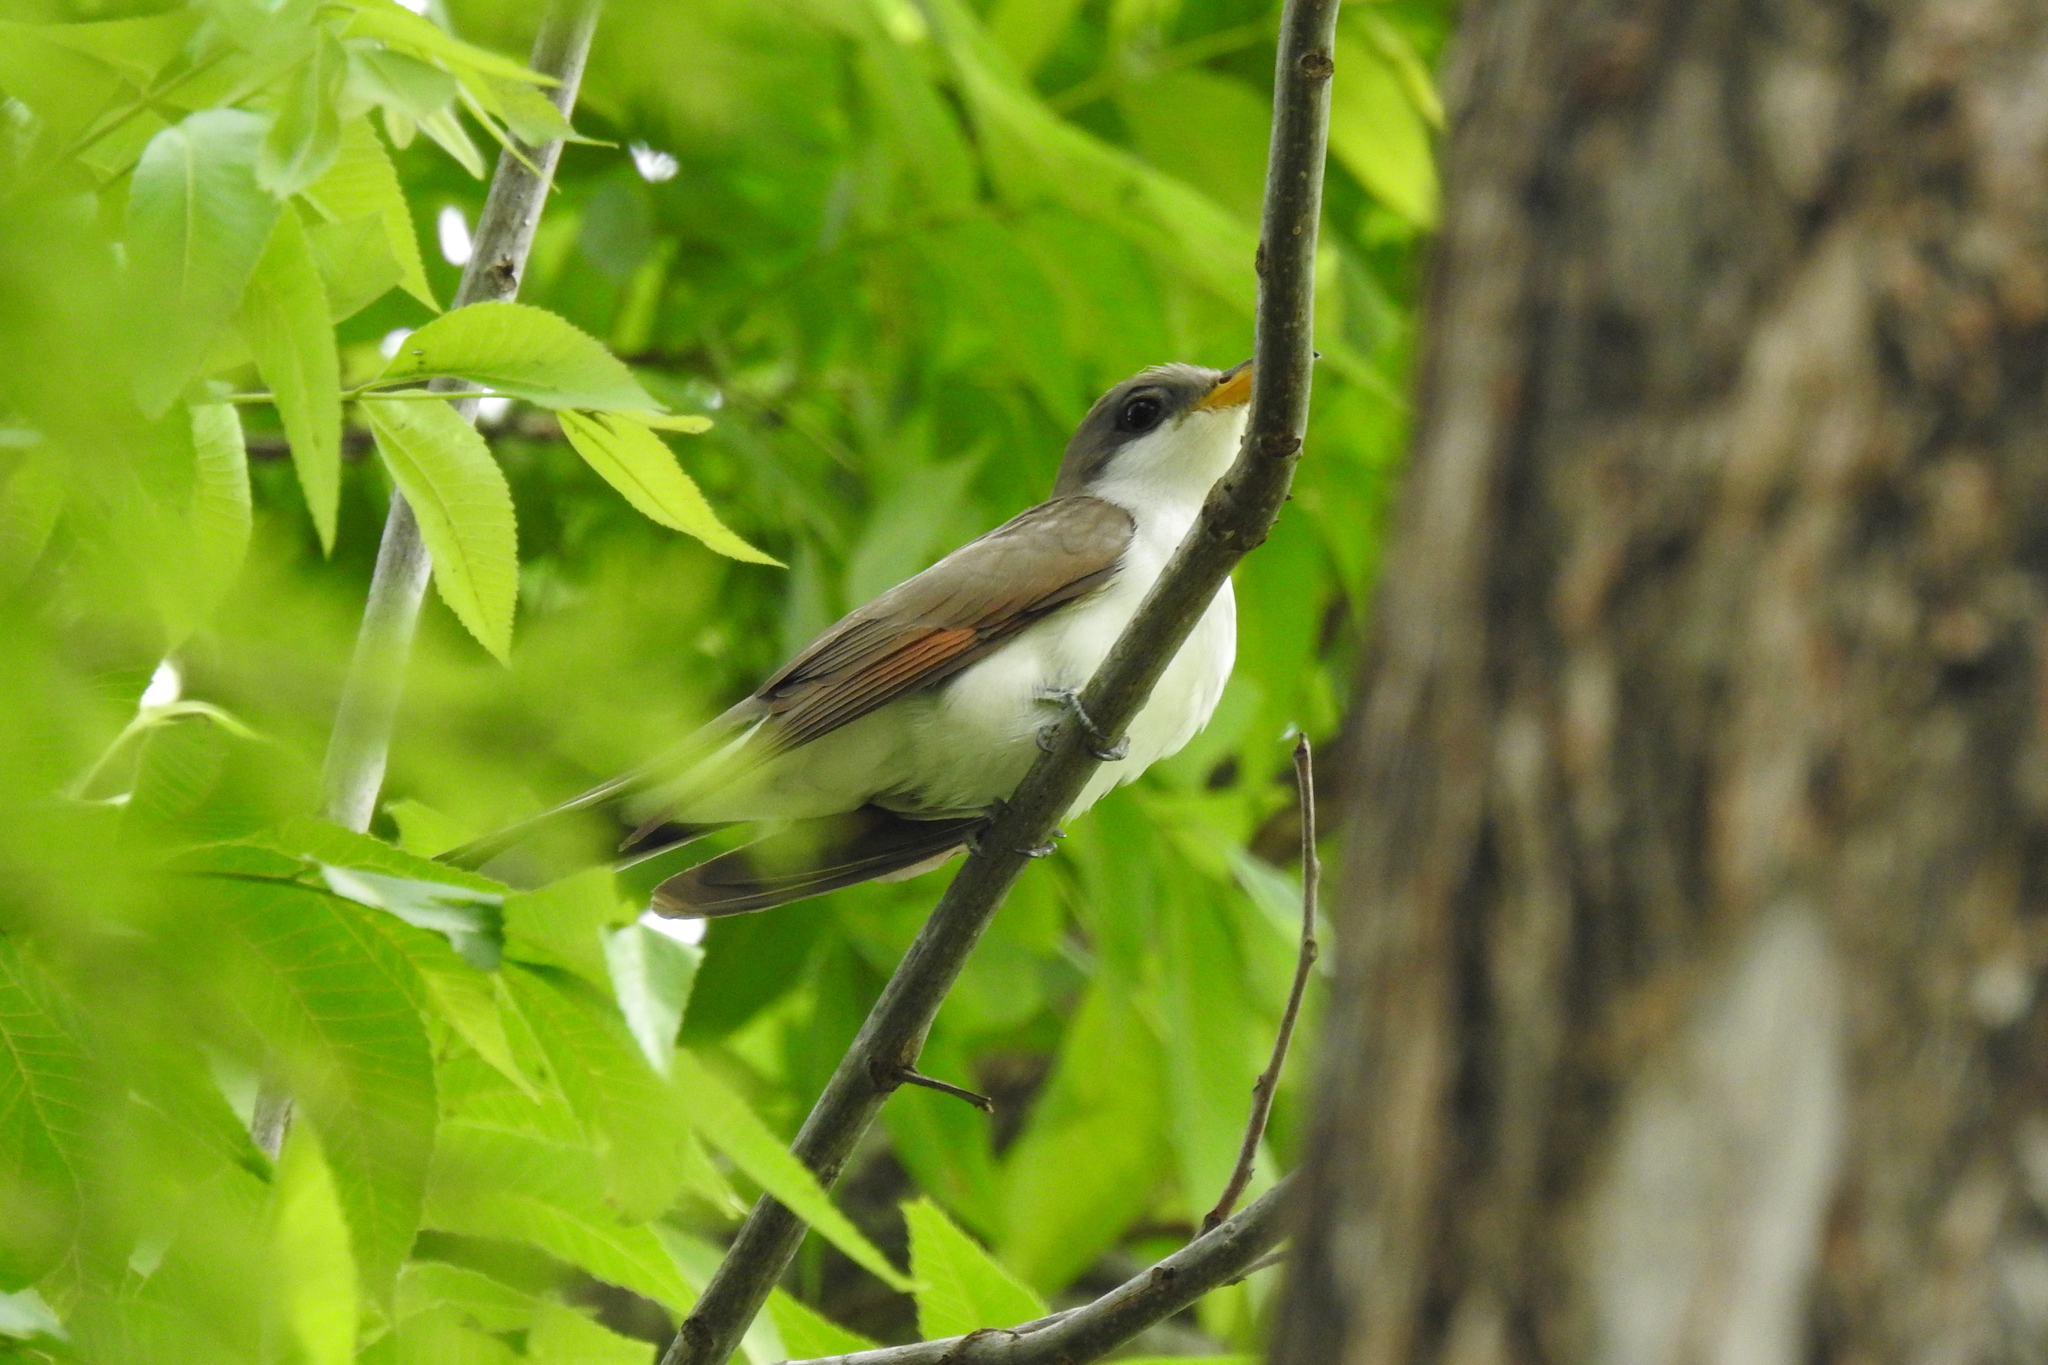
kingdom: Animalia
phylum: Chordata
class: Aves
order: Cuculiformes
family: Cuculidae
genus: Coccyzus
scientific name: Coccyzus americanus
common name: Yellow-billed cuckoo
